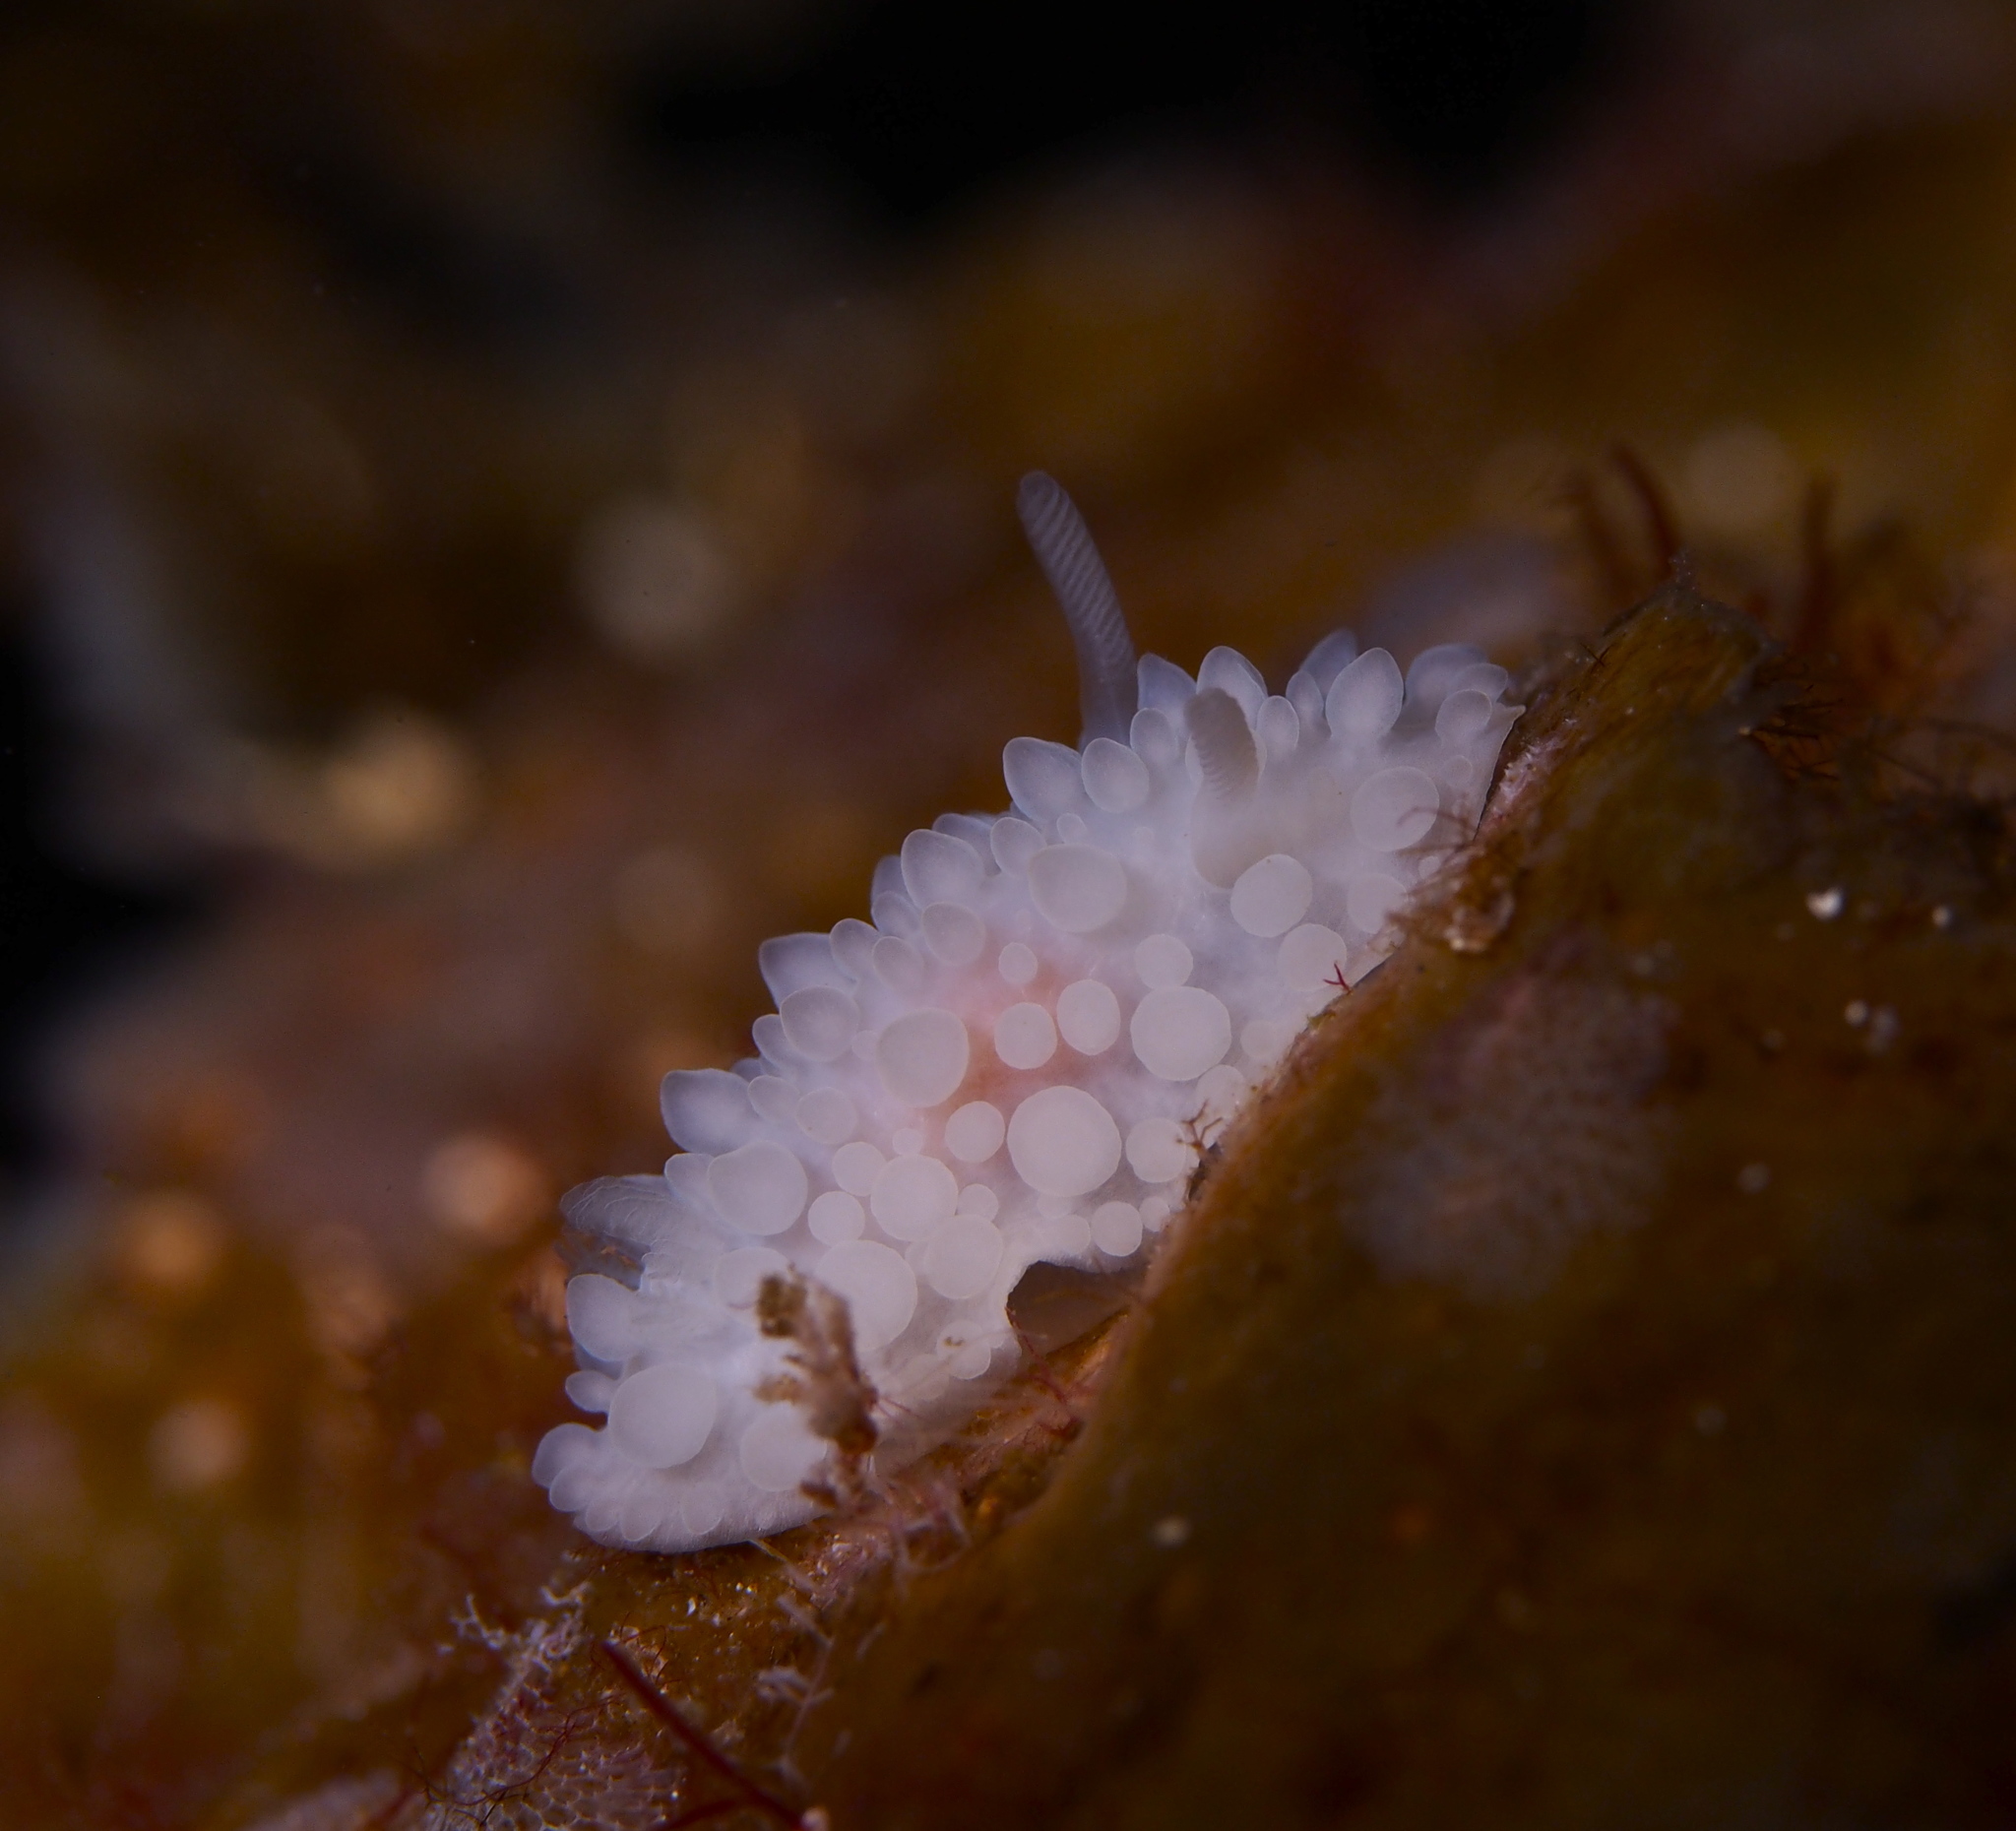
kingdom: Animalia
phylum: Mollusca
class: Gastropoda
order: Nudibranchia
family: Onchidorididae
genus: Adalaria
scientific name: Adalaria loveni
